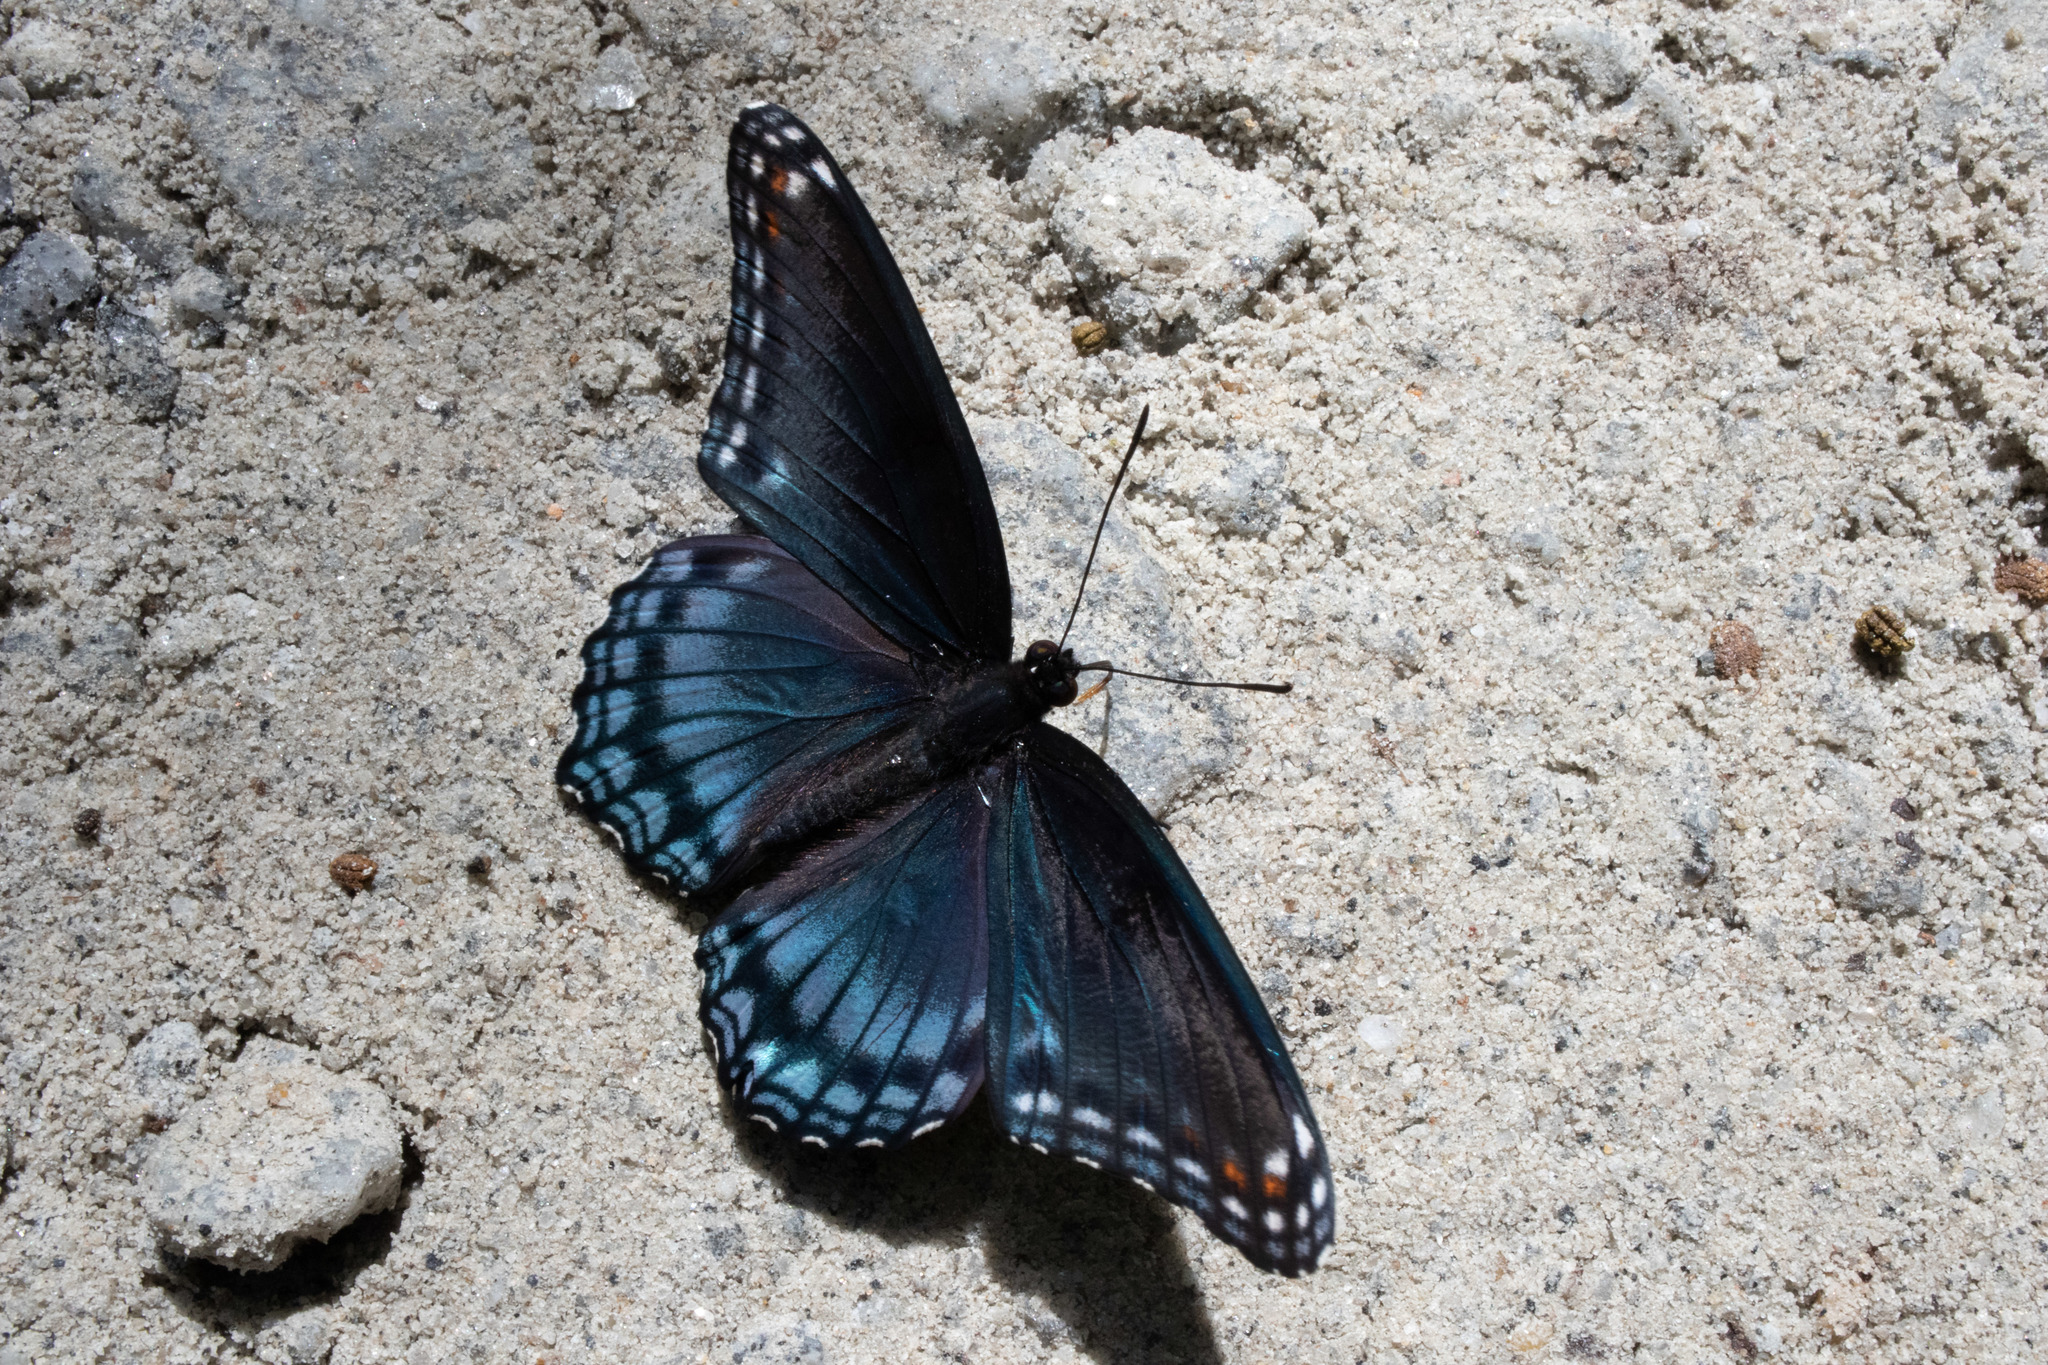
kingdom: Animalia
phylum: Arthropoda
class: Insecta
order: Lepidoptera
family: Nymphalidae
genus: Limenitis
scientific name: Limenitis astyanax
